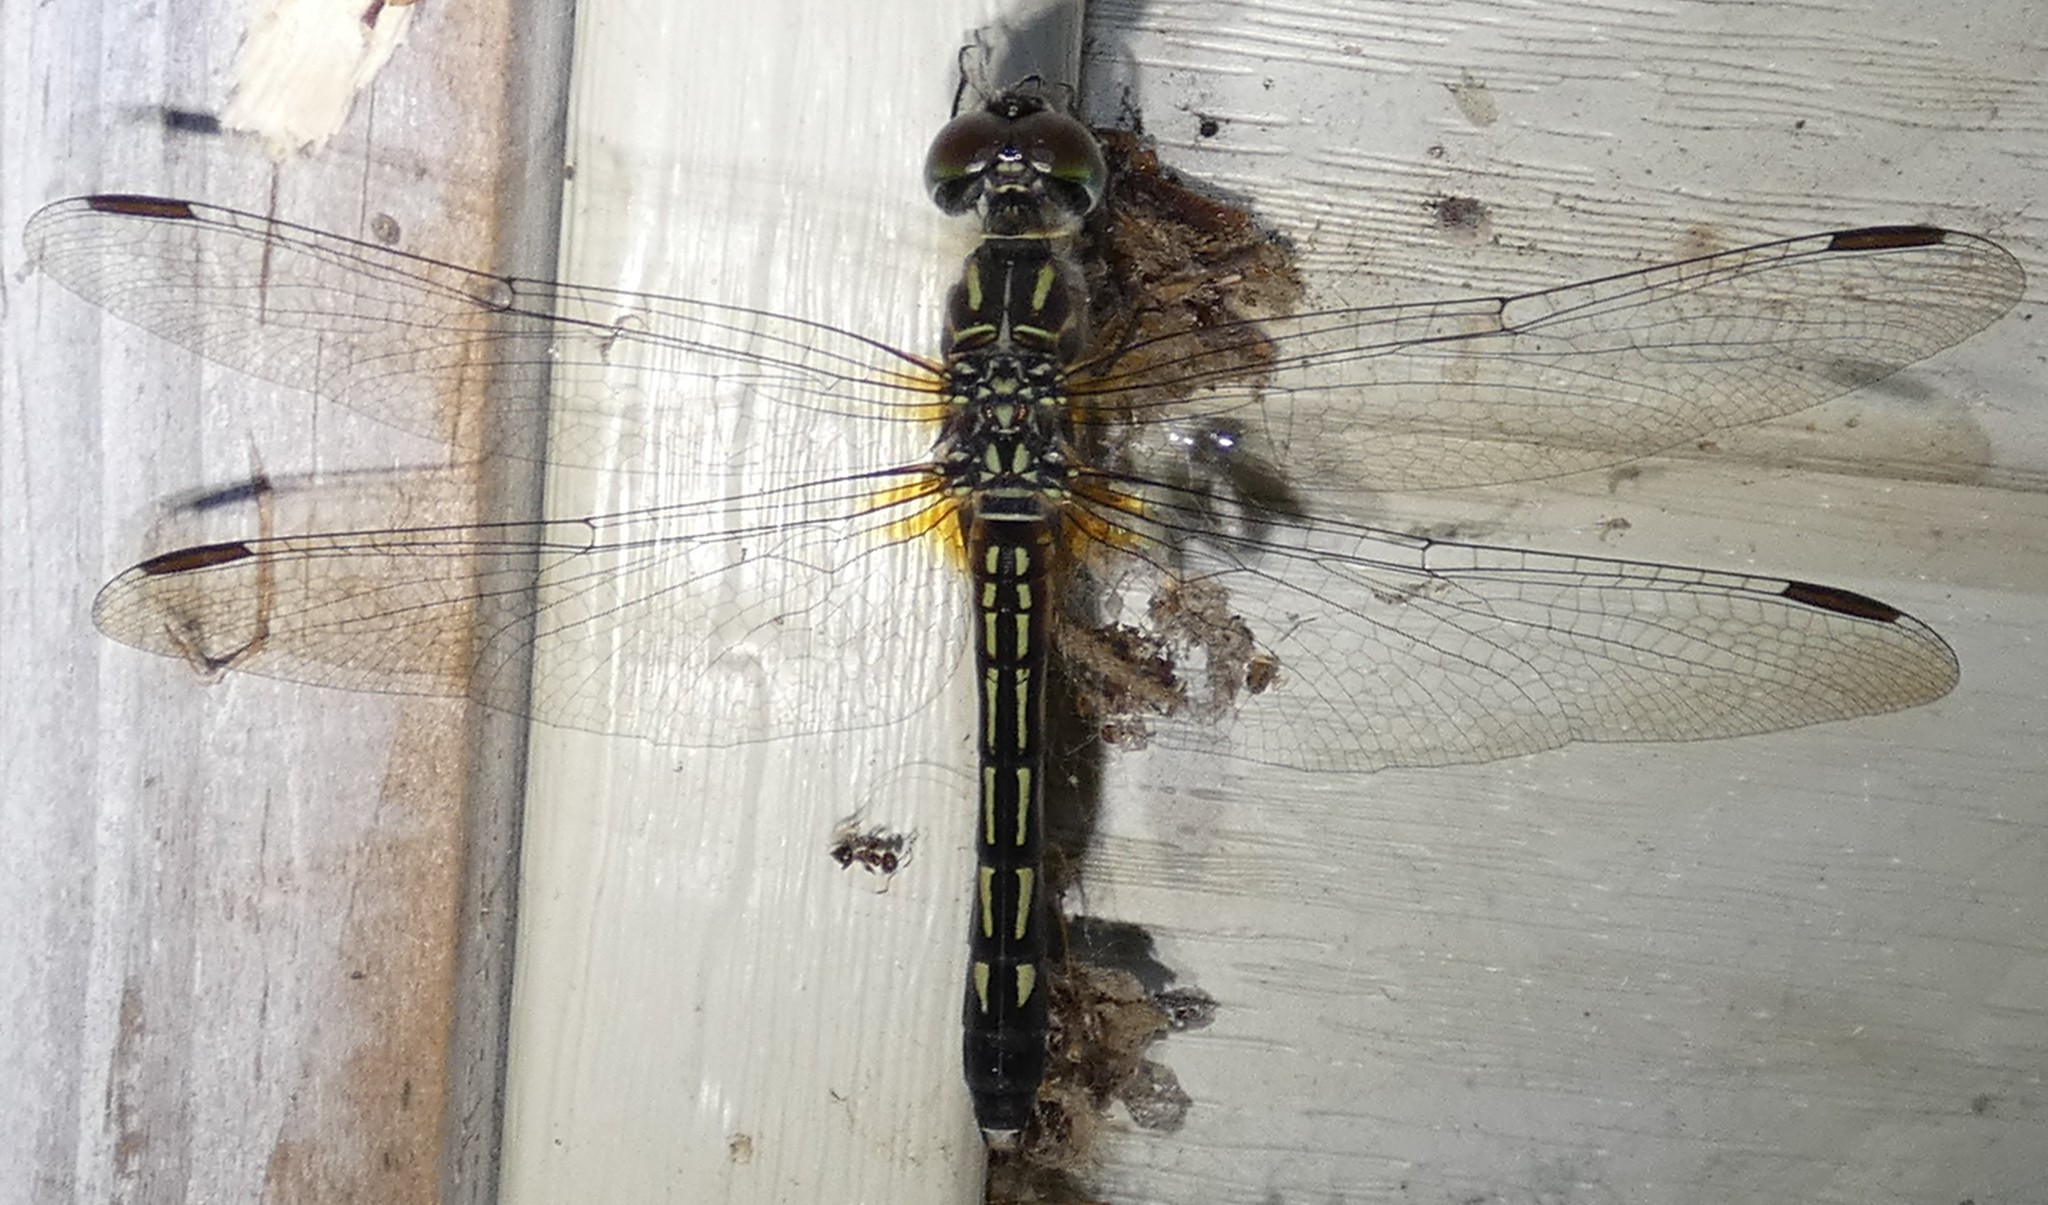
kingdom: Animalia
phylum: Arthropoda
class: Insecta
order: Odonata
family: Libellulidae
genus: Pachydiplax
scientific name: Pachydiplax longipennis
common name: Blue dasher
